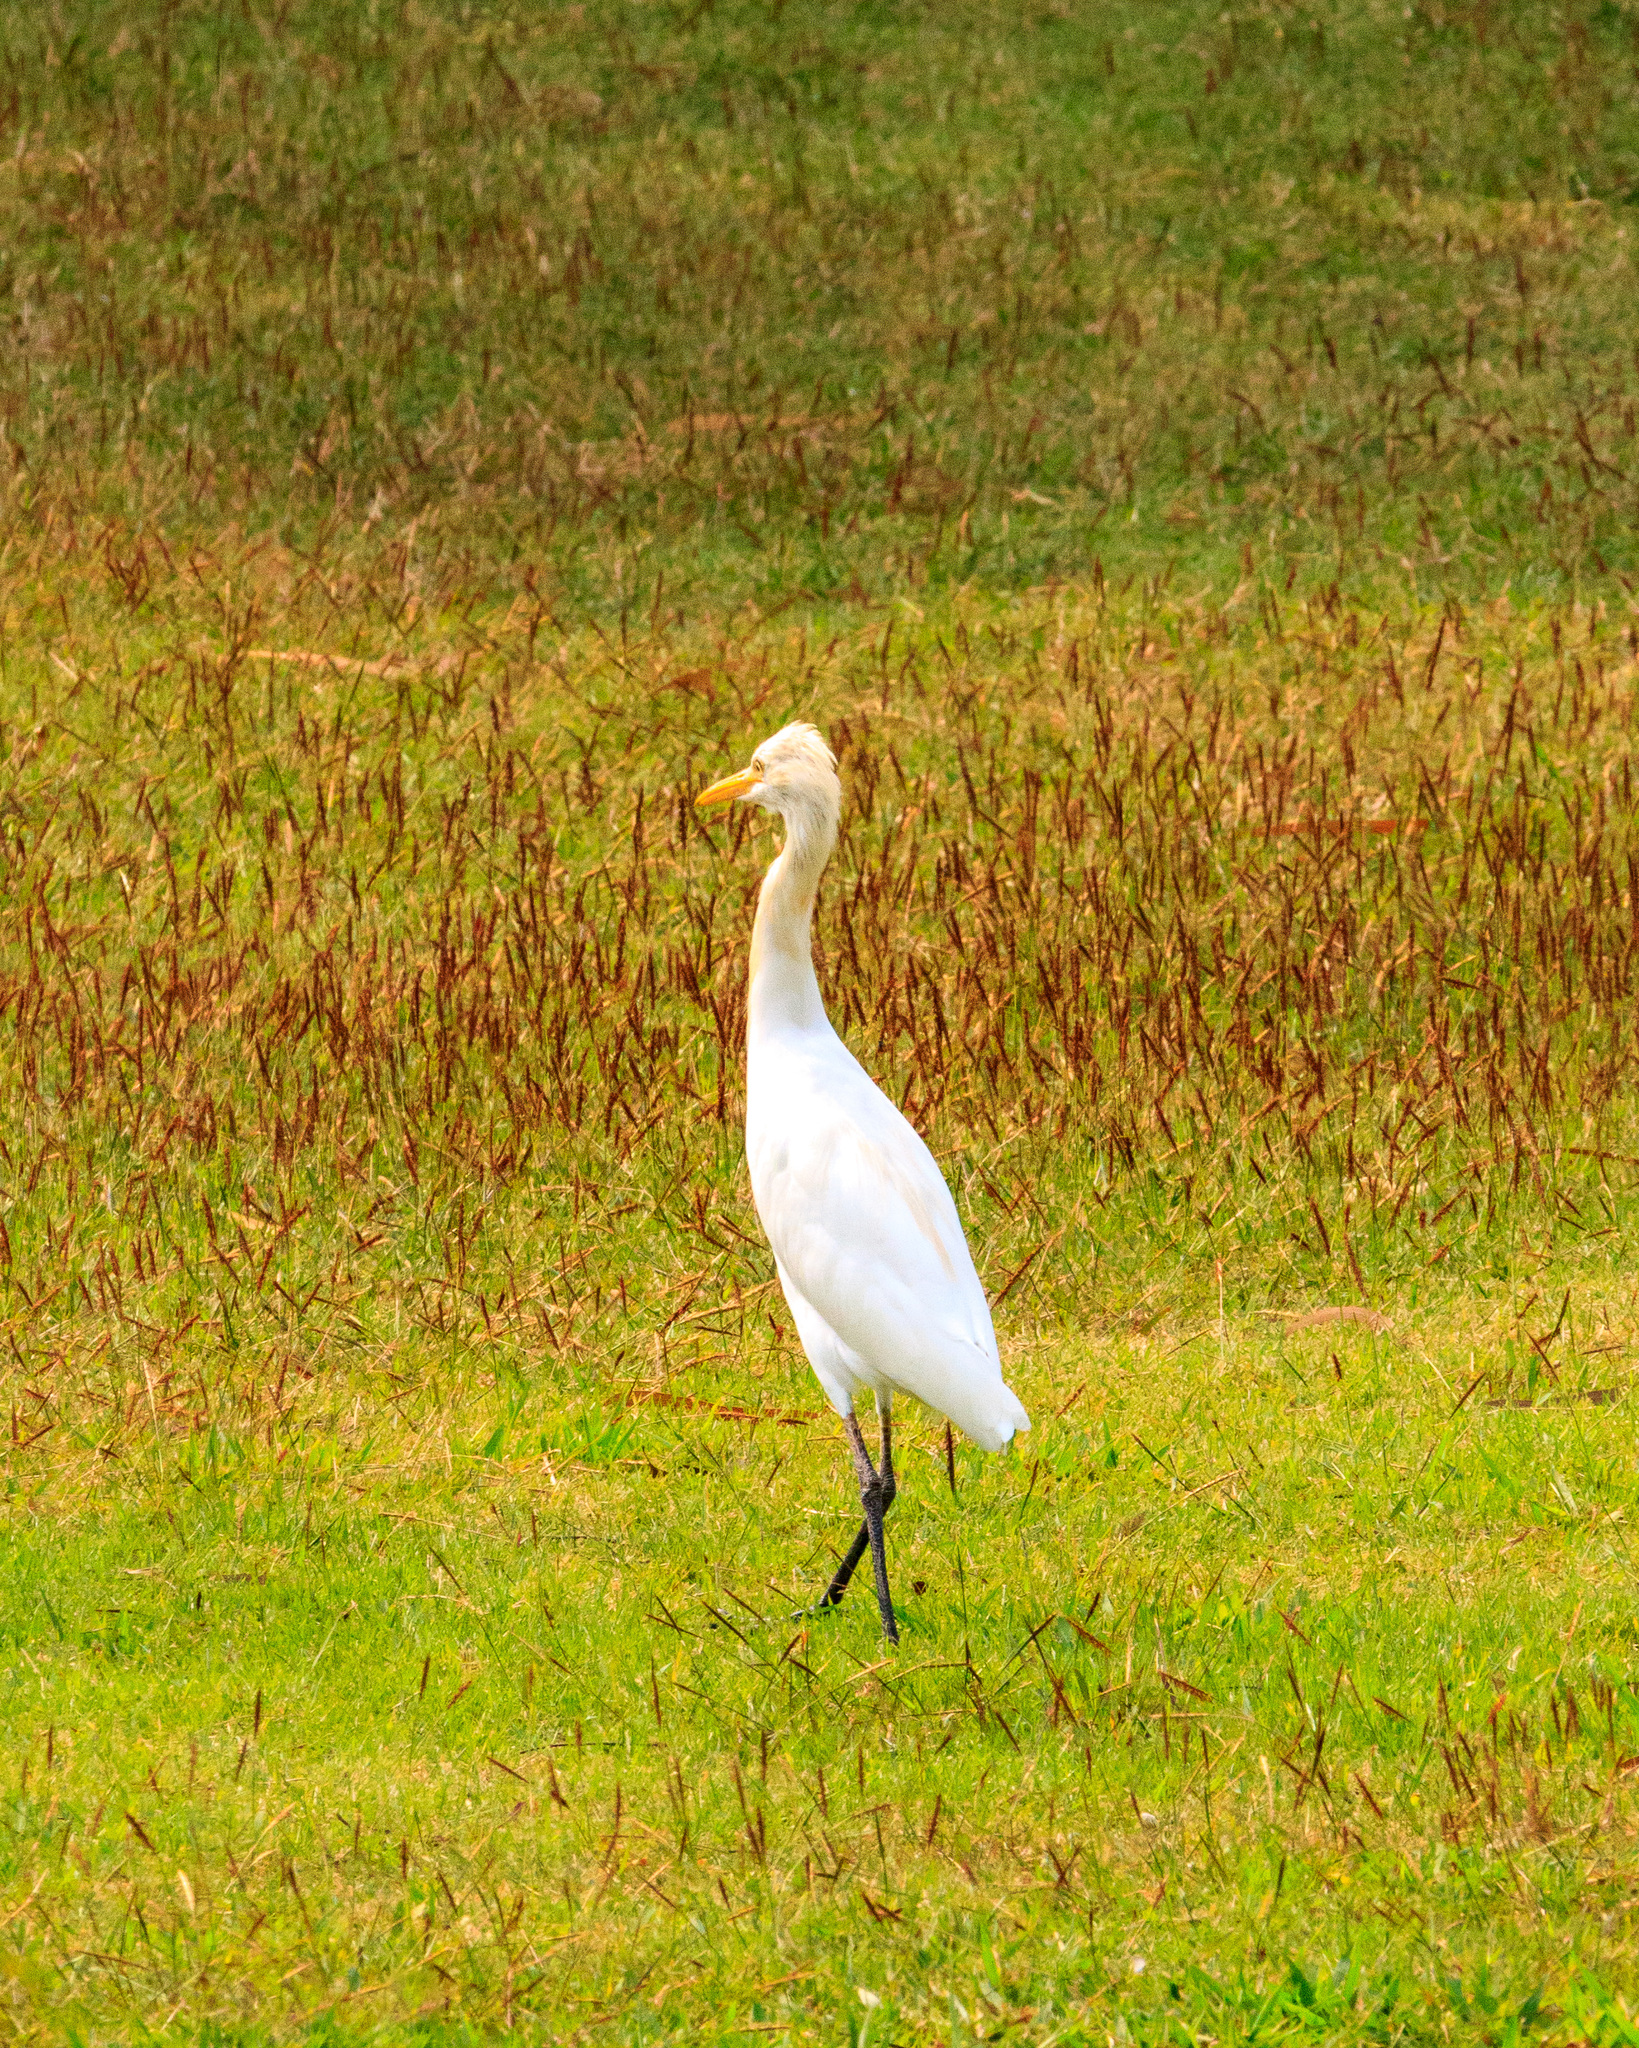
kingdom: Animalia
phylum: Chordata
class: Aves
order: Pelecaniformes
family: Ardeidae
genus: Bubulcus
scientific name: Bubulcus coromandus
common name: Eastern cattle egret
